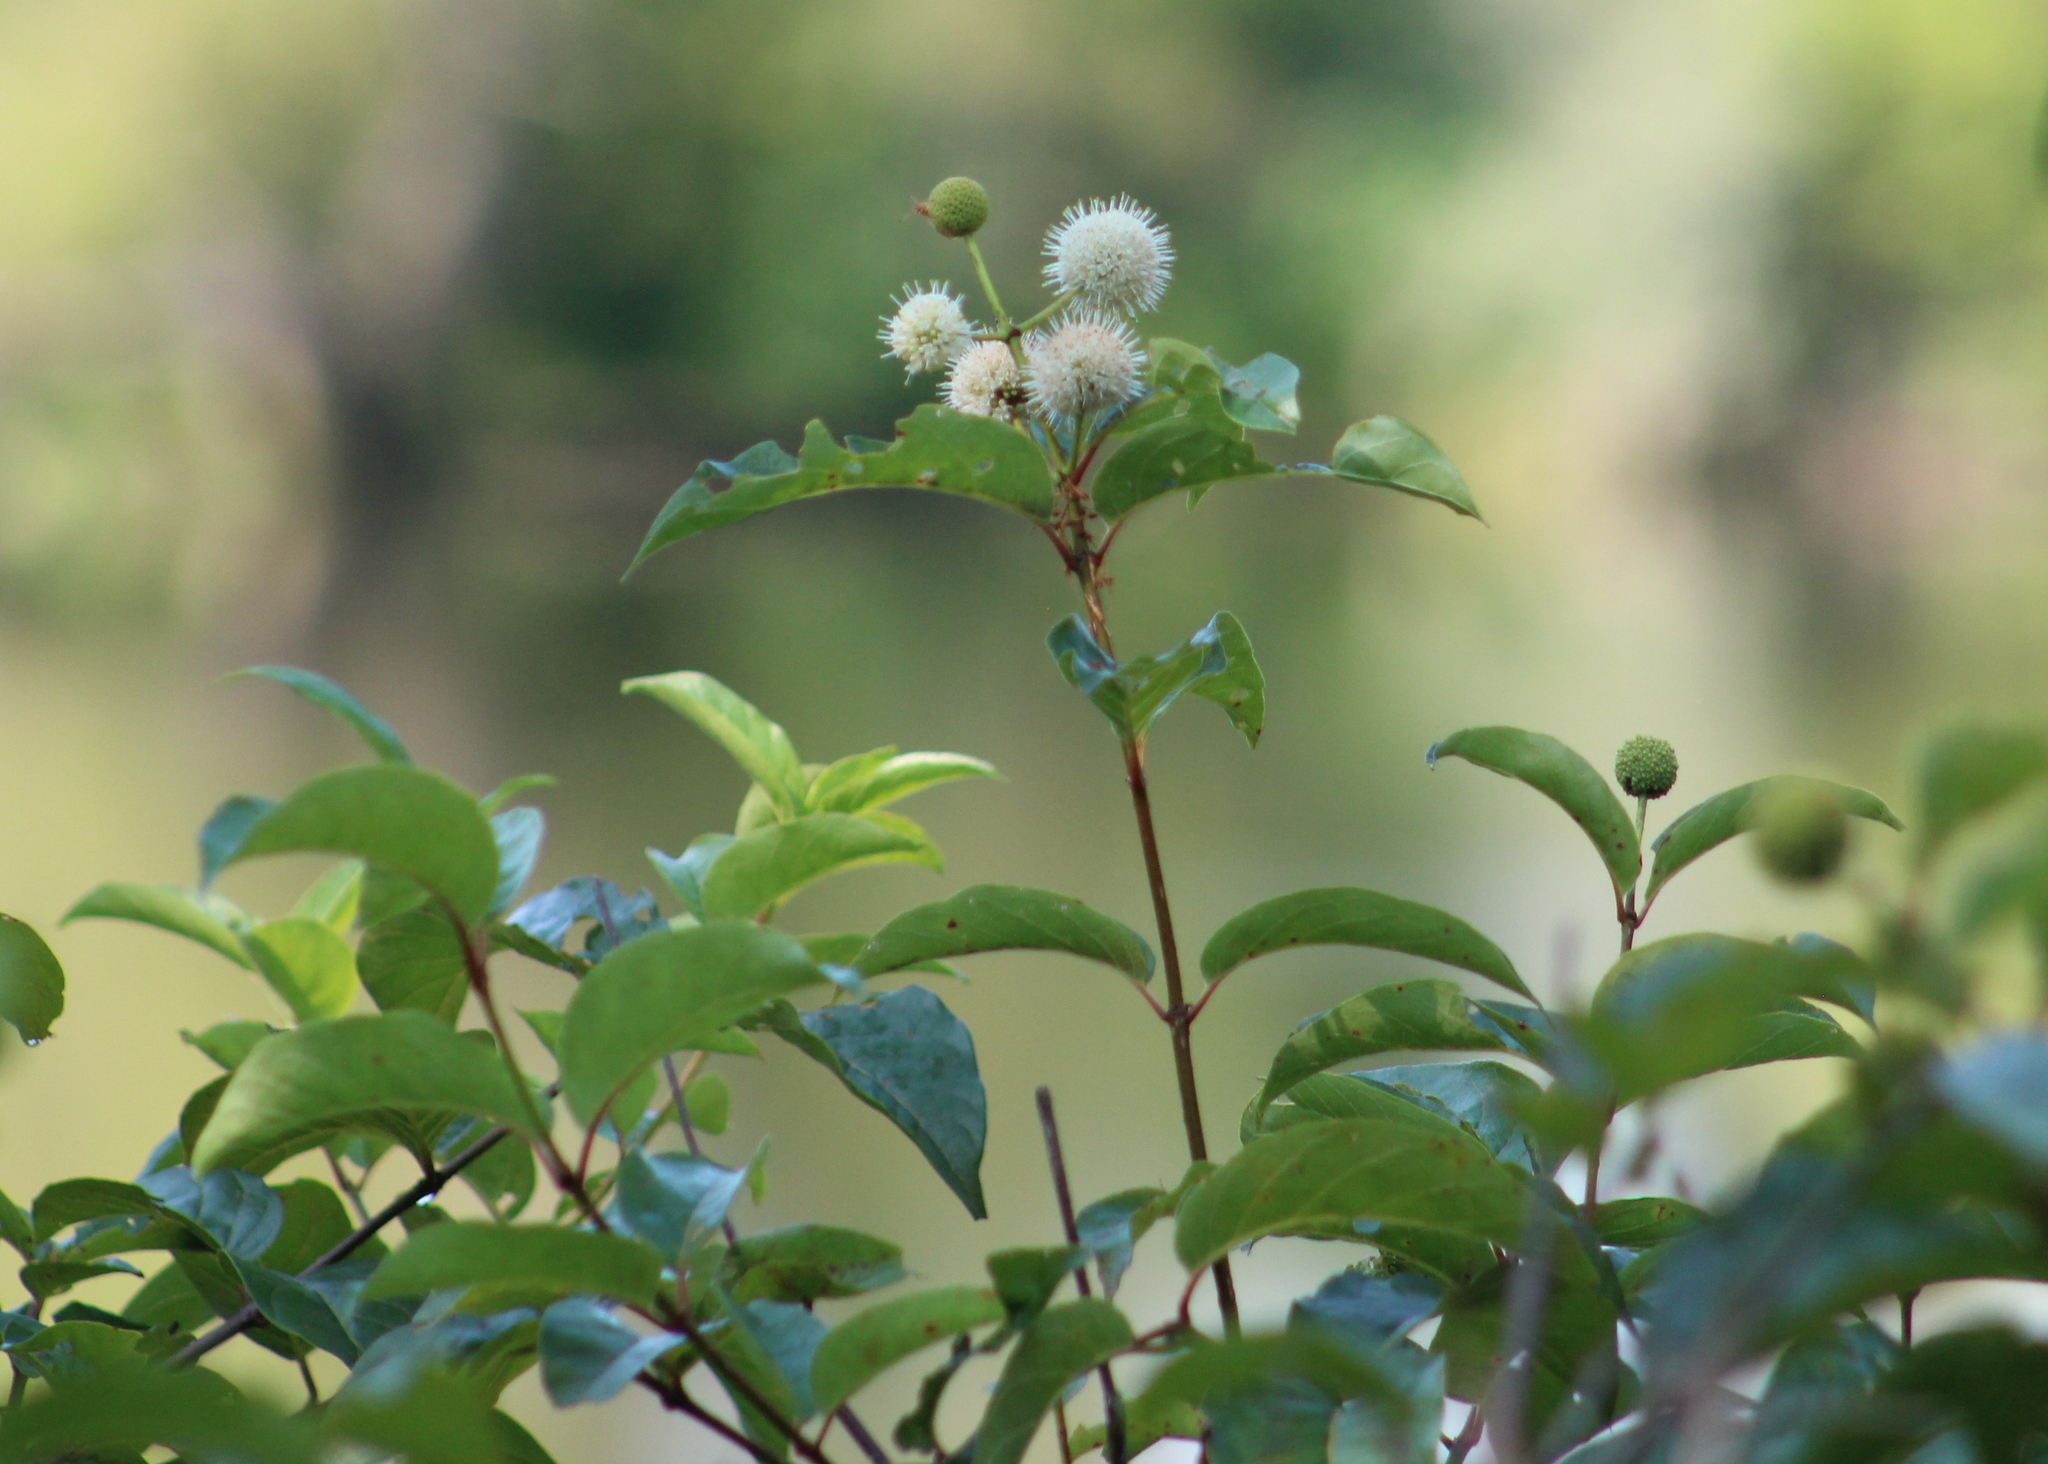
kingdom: Plantae
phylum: Tracheophyta
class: Magnoliopsida
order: Gentianales
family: Rubiaceae
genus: Cephalanthus
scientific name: Cephalanthus occidentalis
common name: Button-willow
